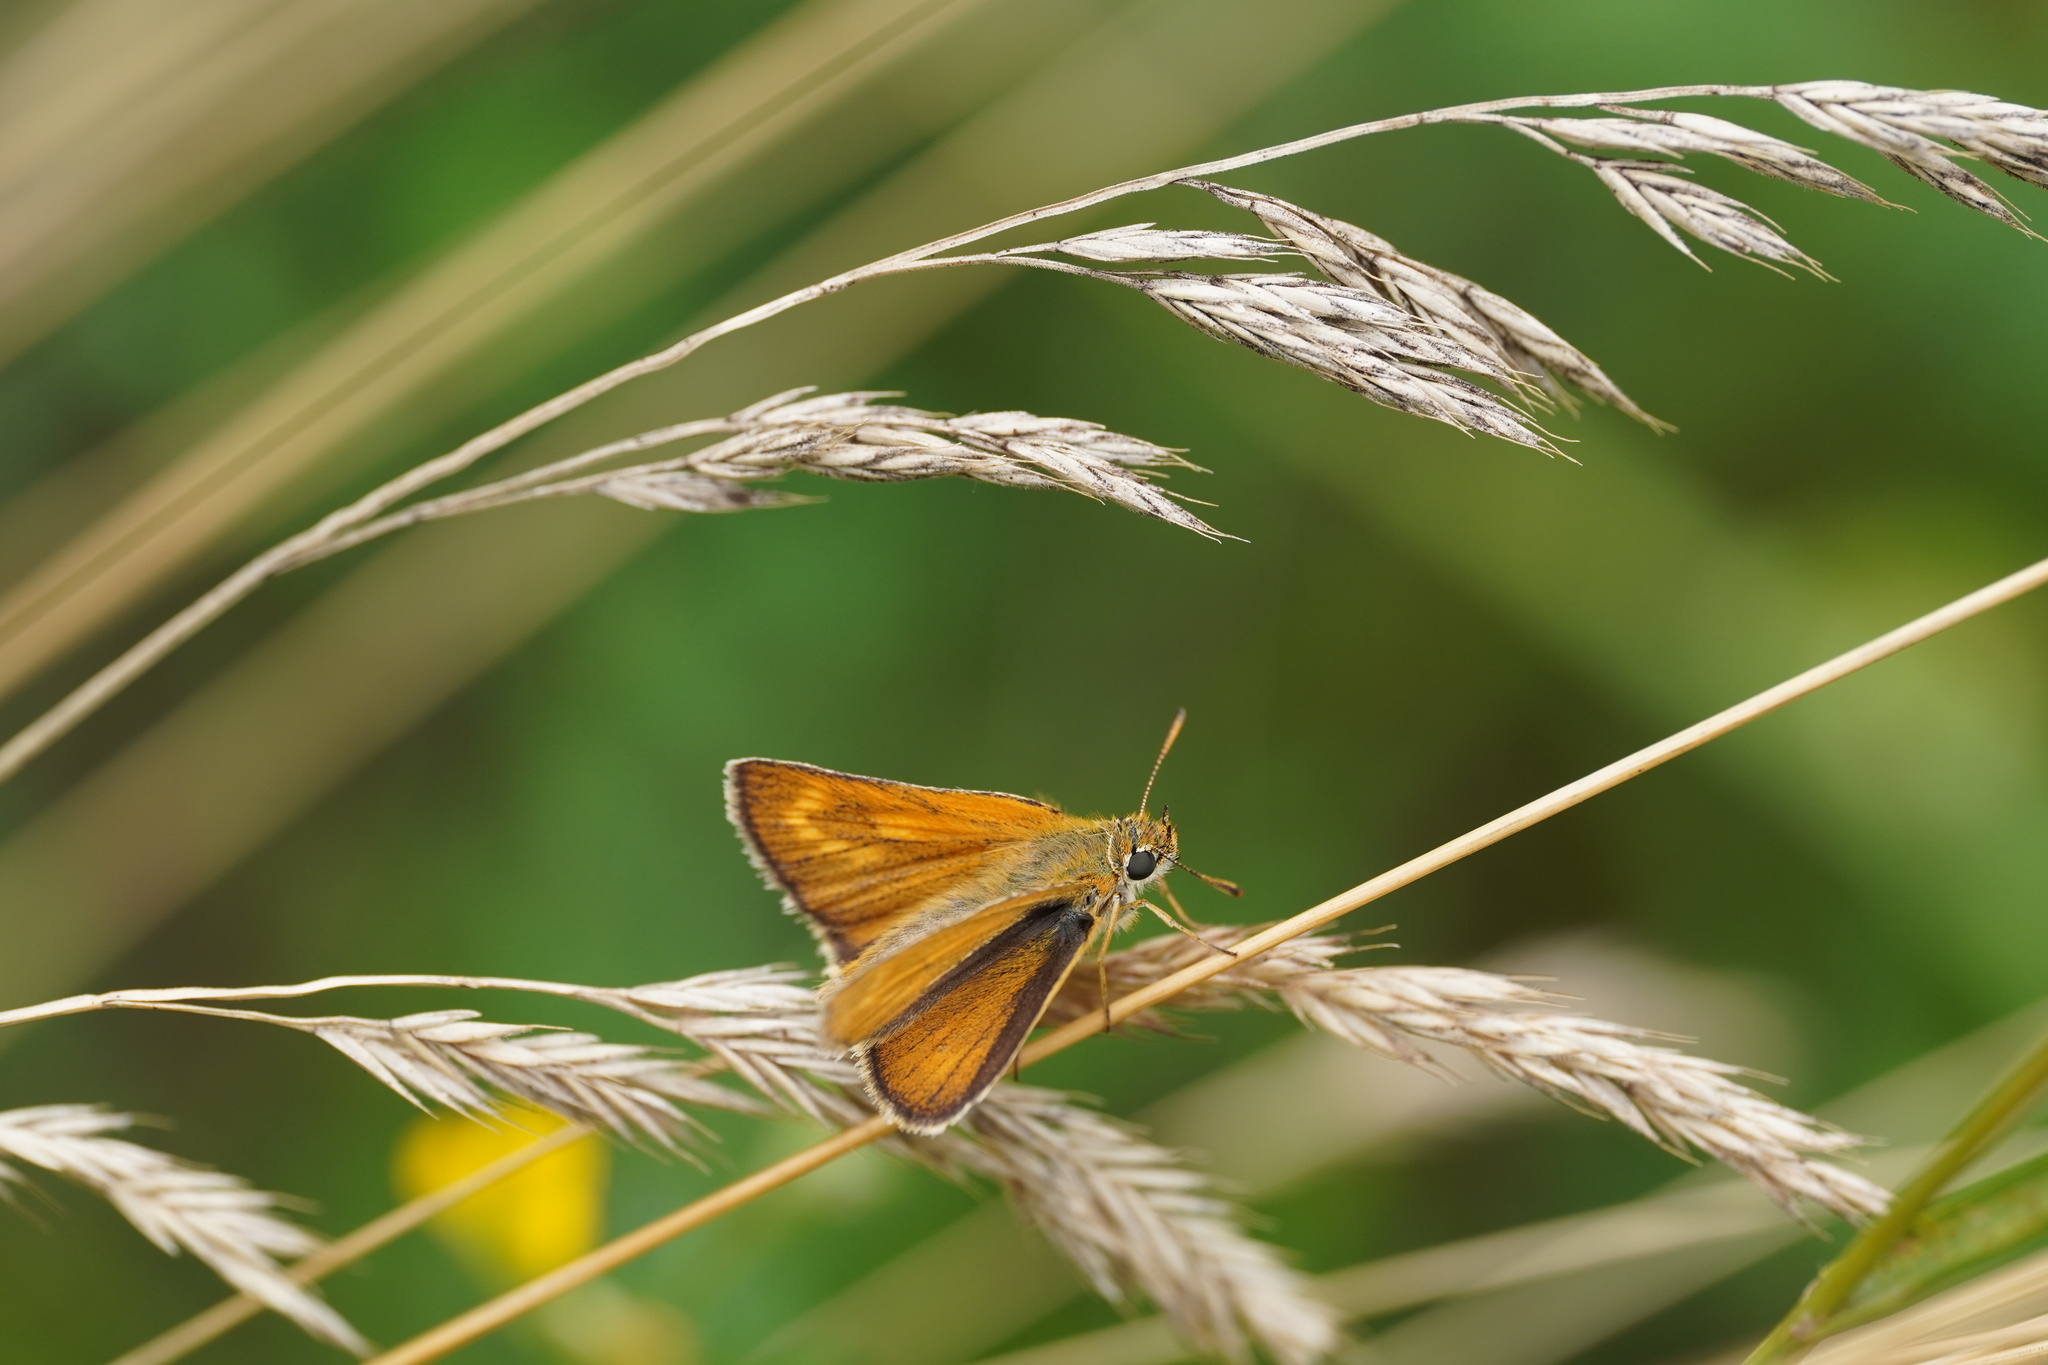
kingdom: Animalia
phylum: Arthropoda
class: Insecta
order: Lepidoptera
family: Hesperiidae
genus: Thymelicus
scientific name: Thymelicus acteon
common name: Lulworth skipper
